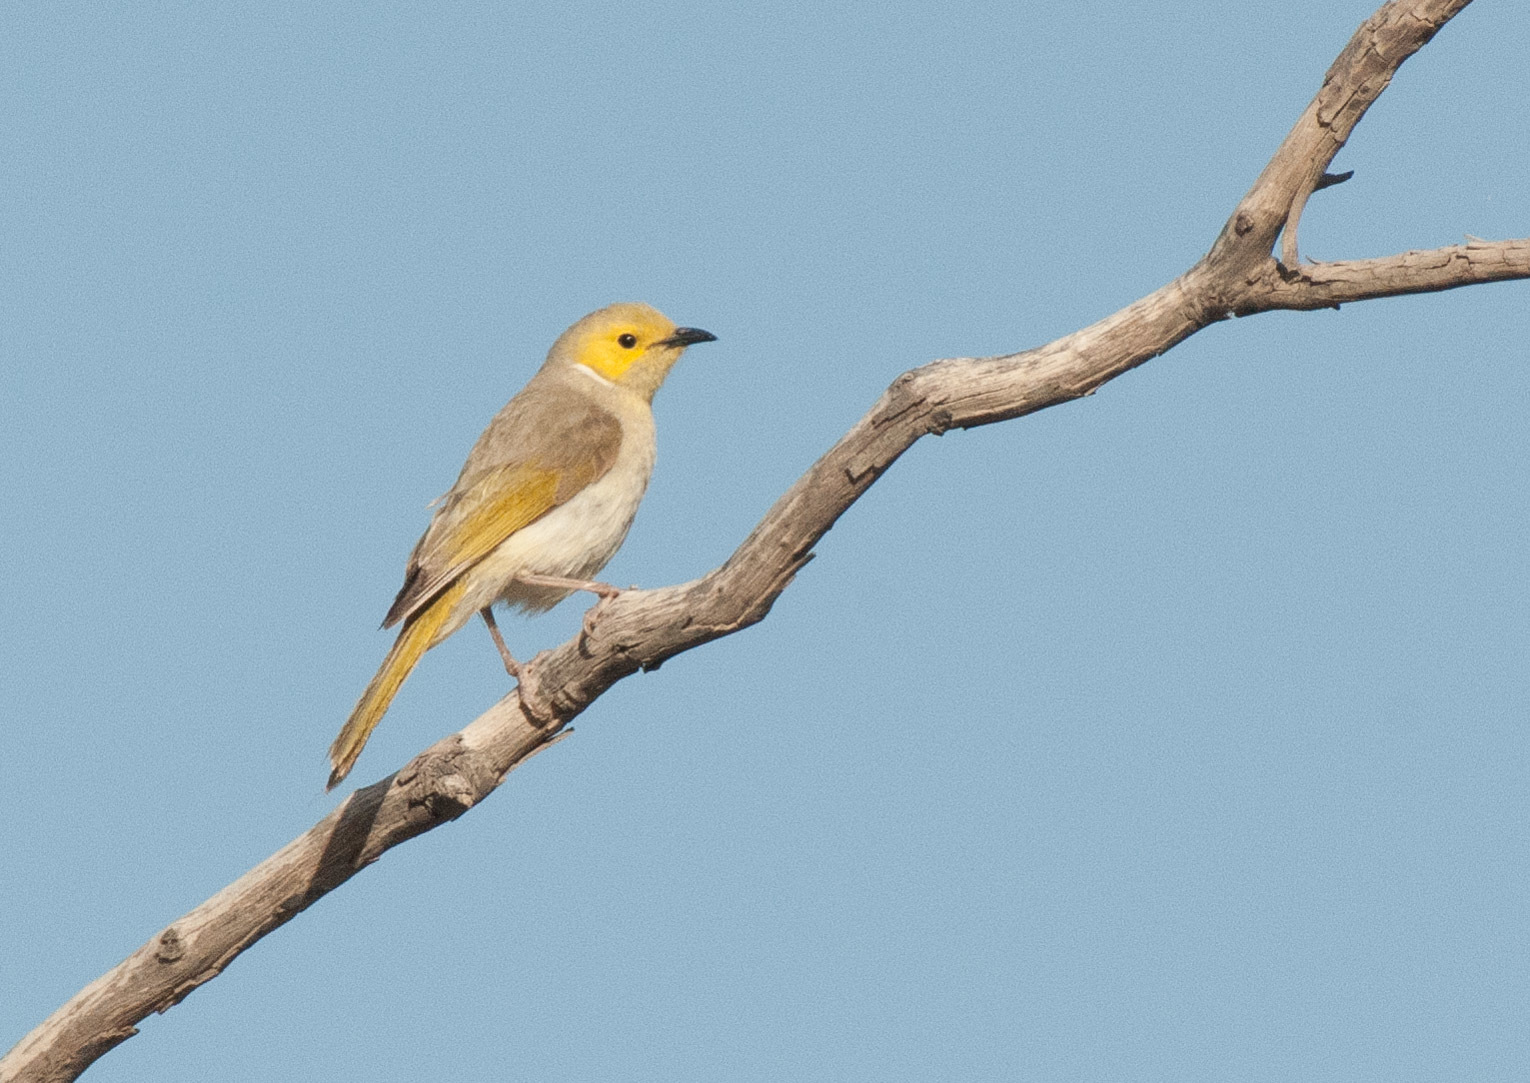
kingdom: Animalia
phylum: Chordata
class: Aves
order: Passeriformes
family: Meliphagidae
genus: Ptilotula
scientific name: Ptilotula penicillata
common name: White-plumed honeyeater
